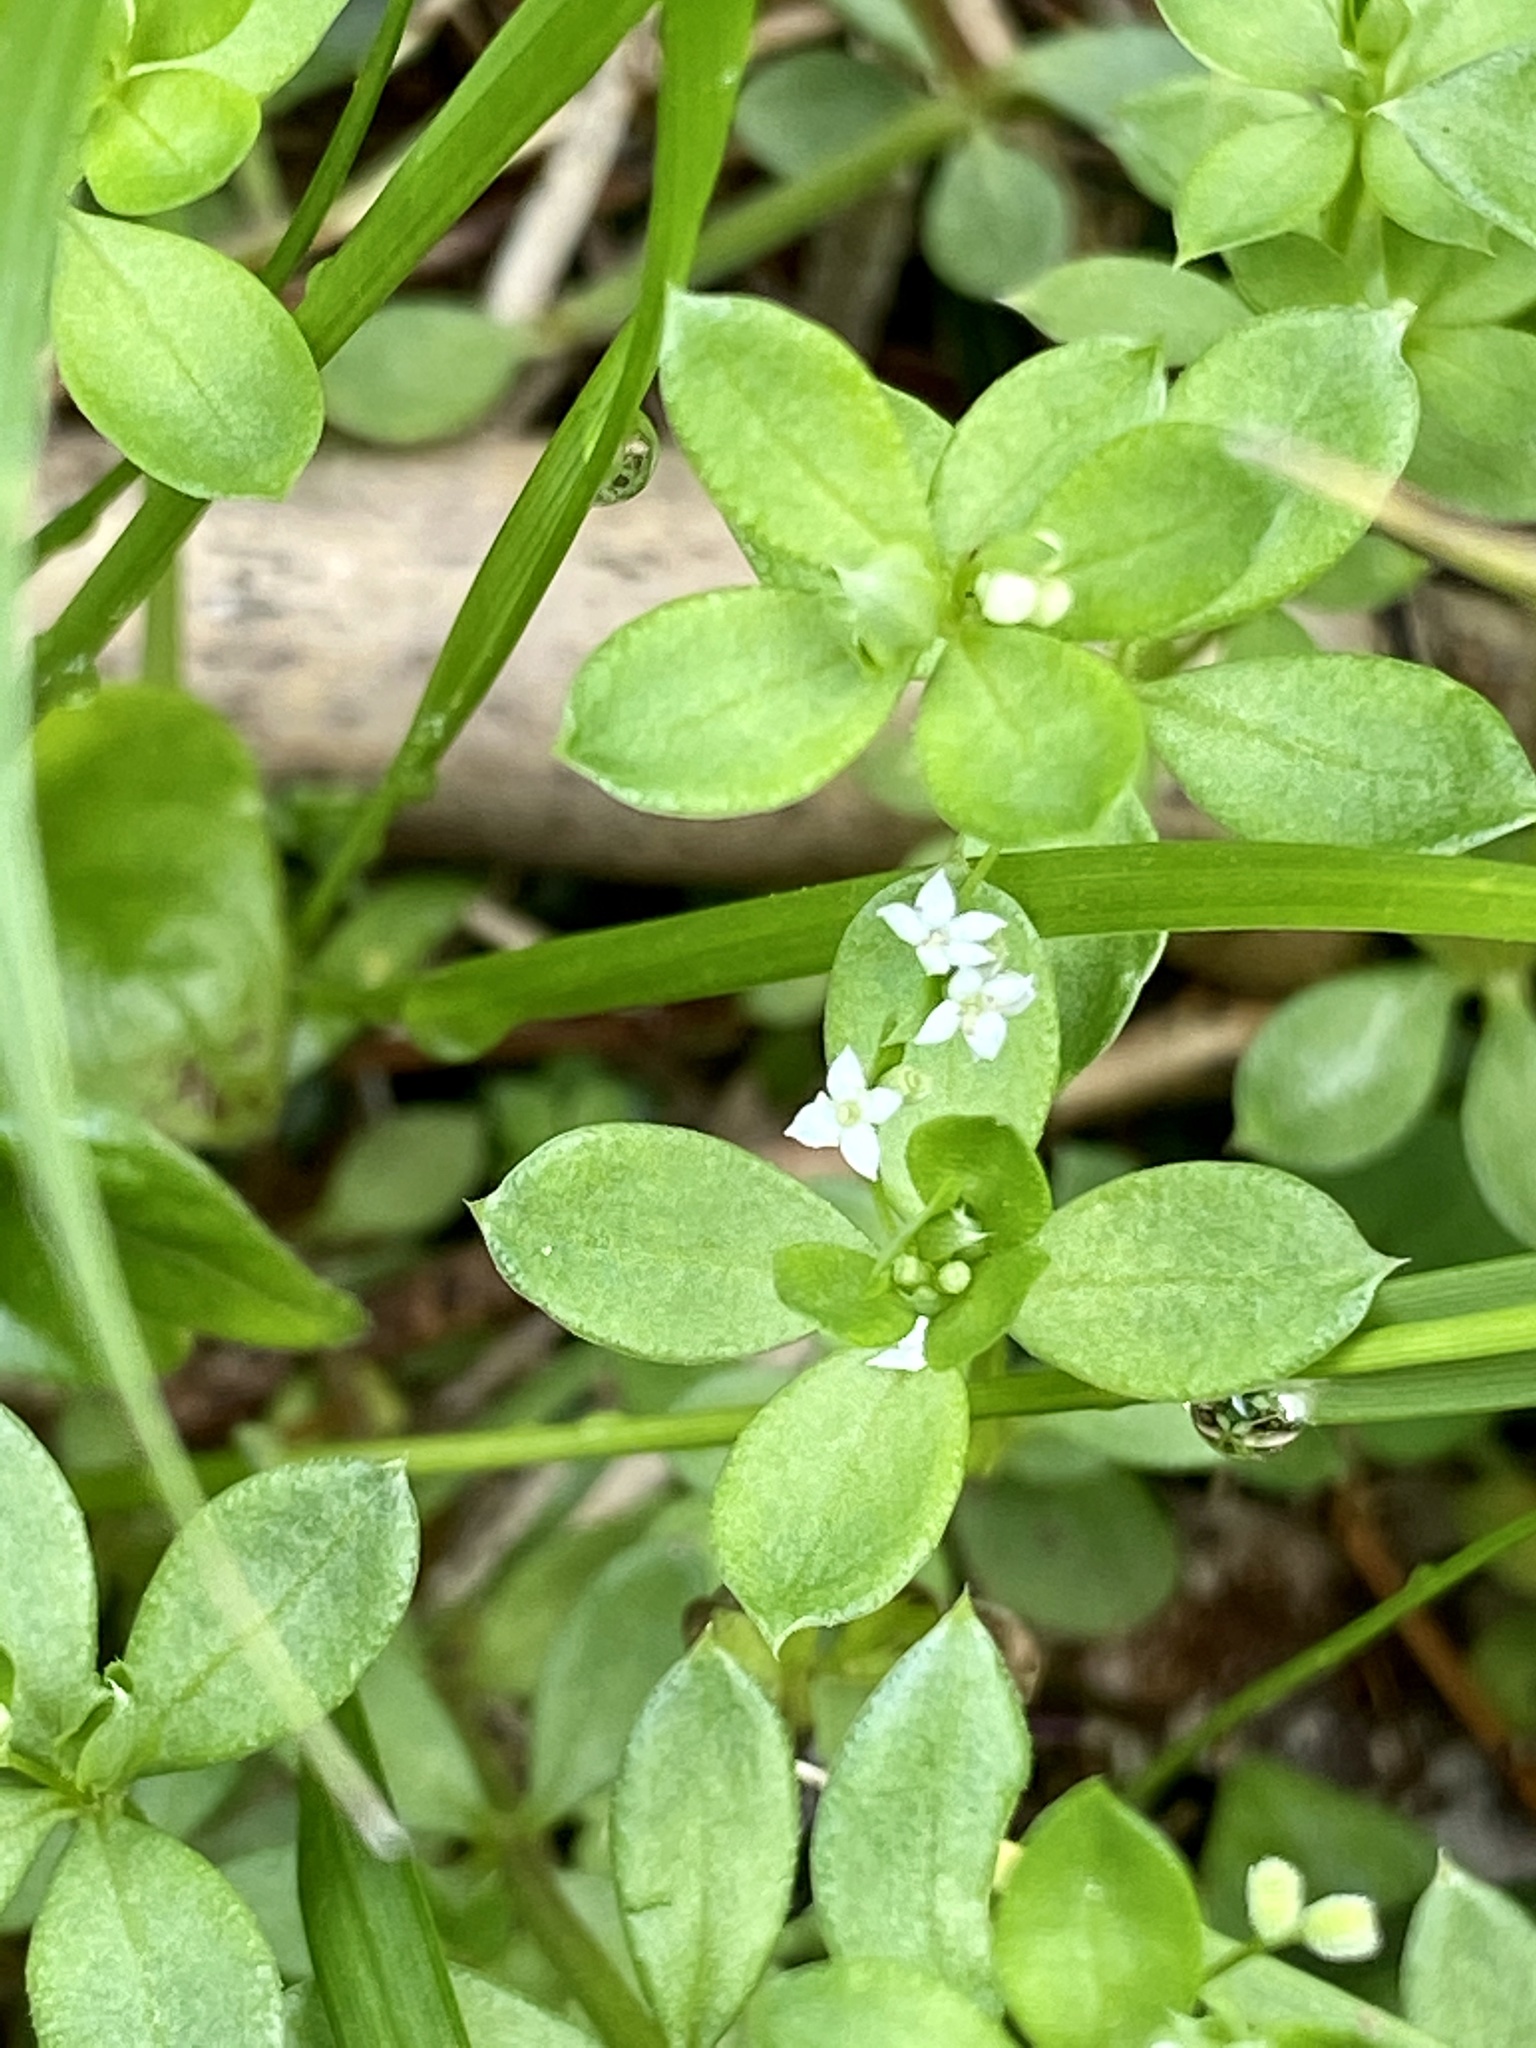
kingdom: Plantae
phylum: Tracheophyta
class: Magnoliopsida
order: Gentianales
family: Rubiaceae
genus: Galium
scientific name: Galium kikumuyura
